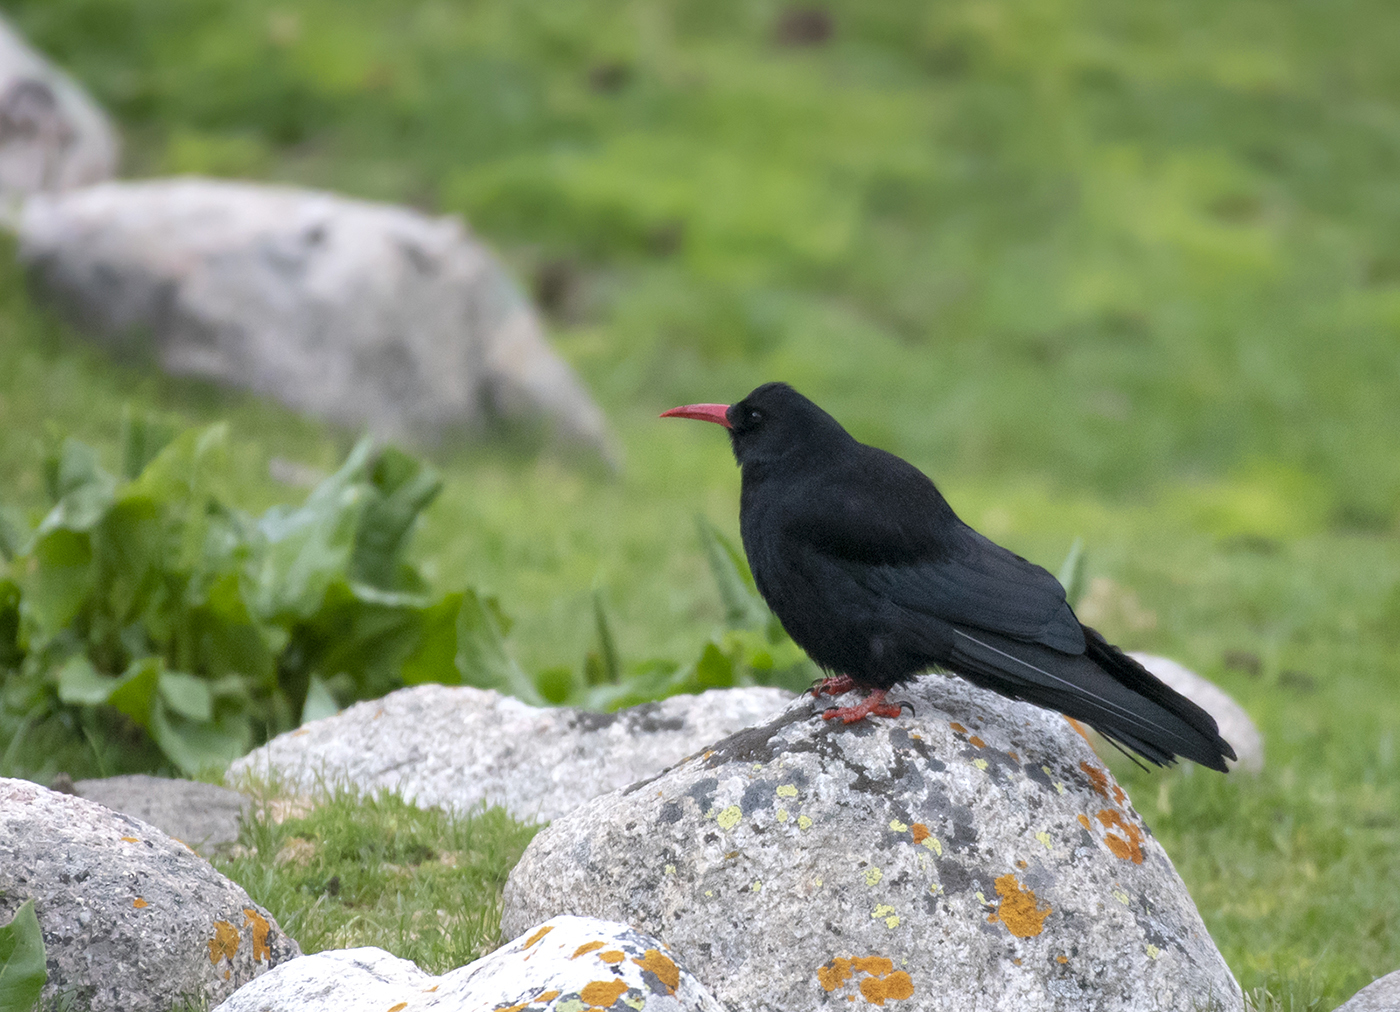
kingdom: Animalia
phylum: Chordata
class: Aves
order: Passeriformes
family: Corvidae
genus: Pyrrhocorax
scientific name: Pyrrhocorax pyrrhocorax
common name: Red-billed chough
